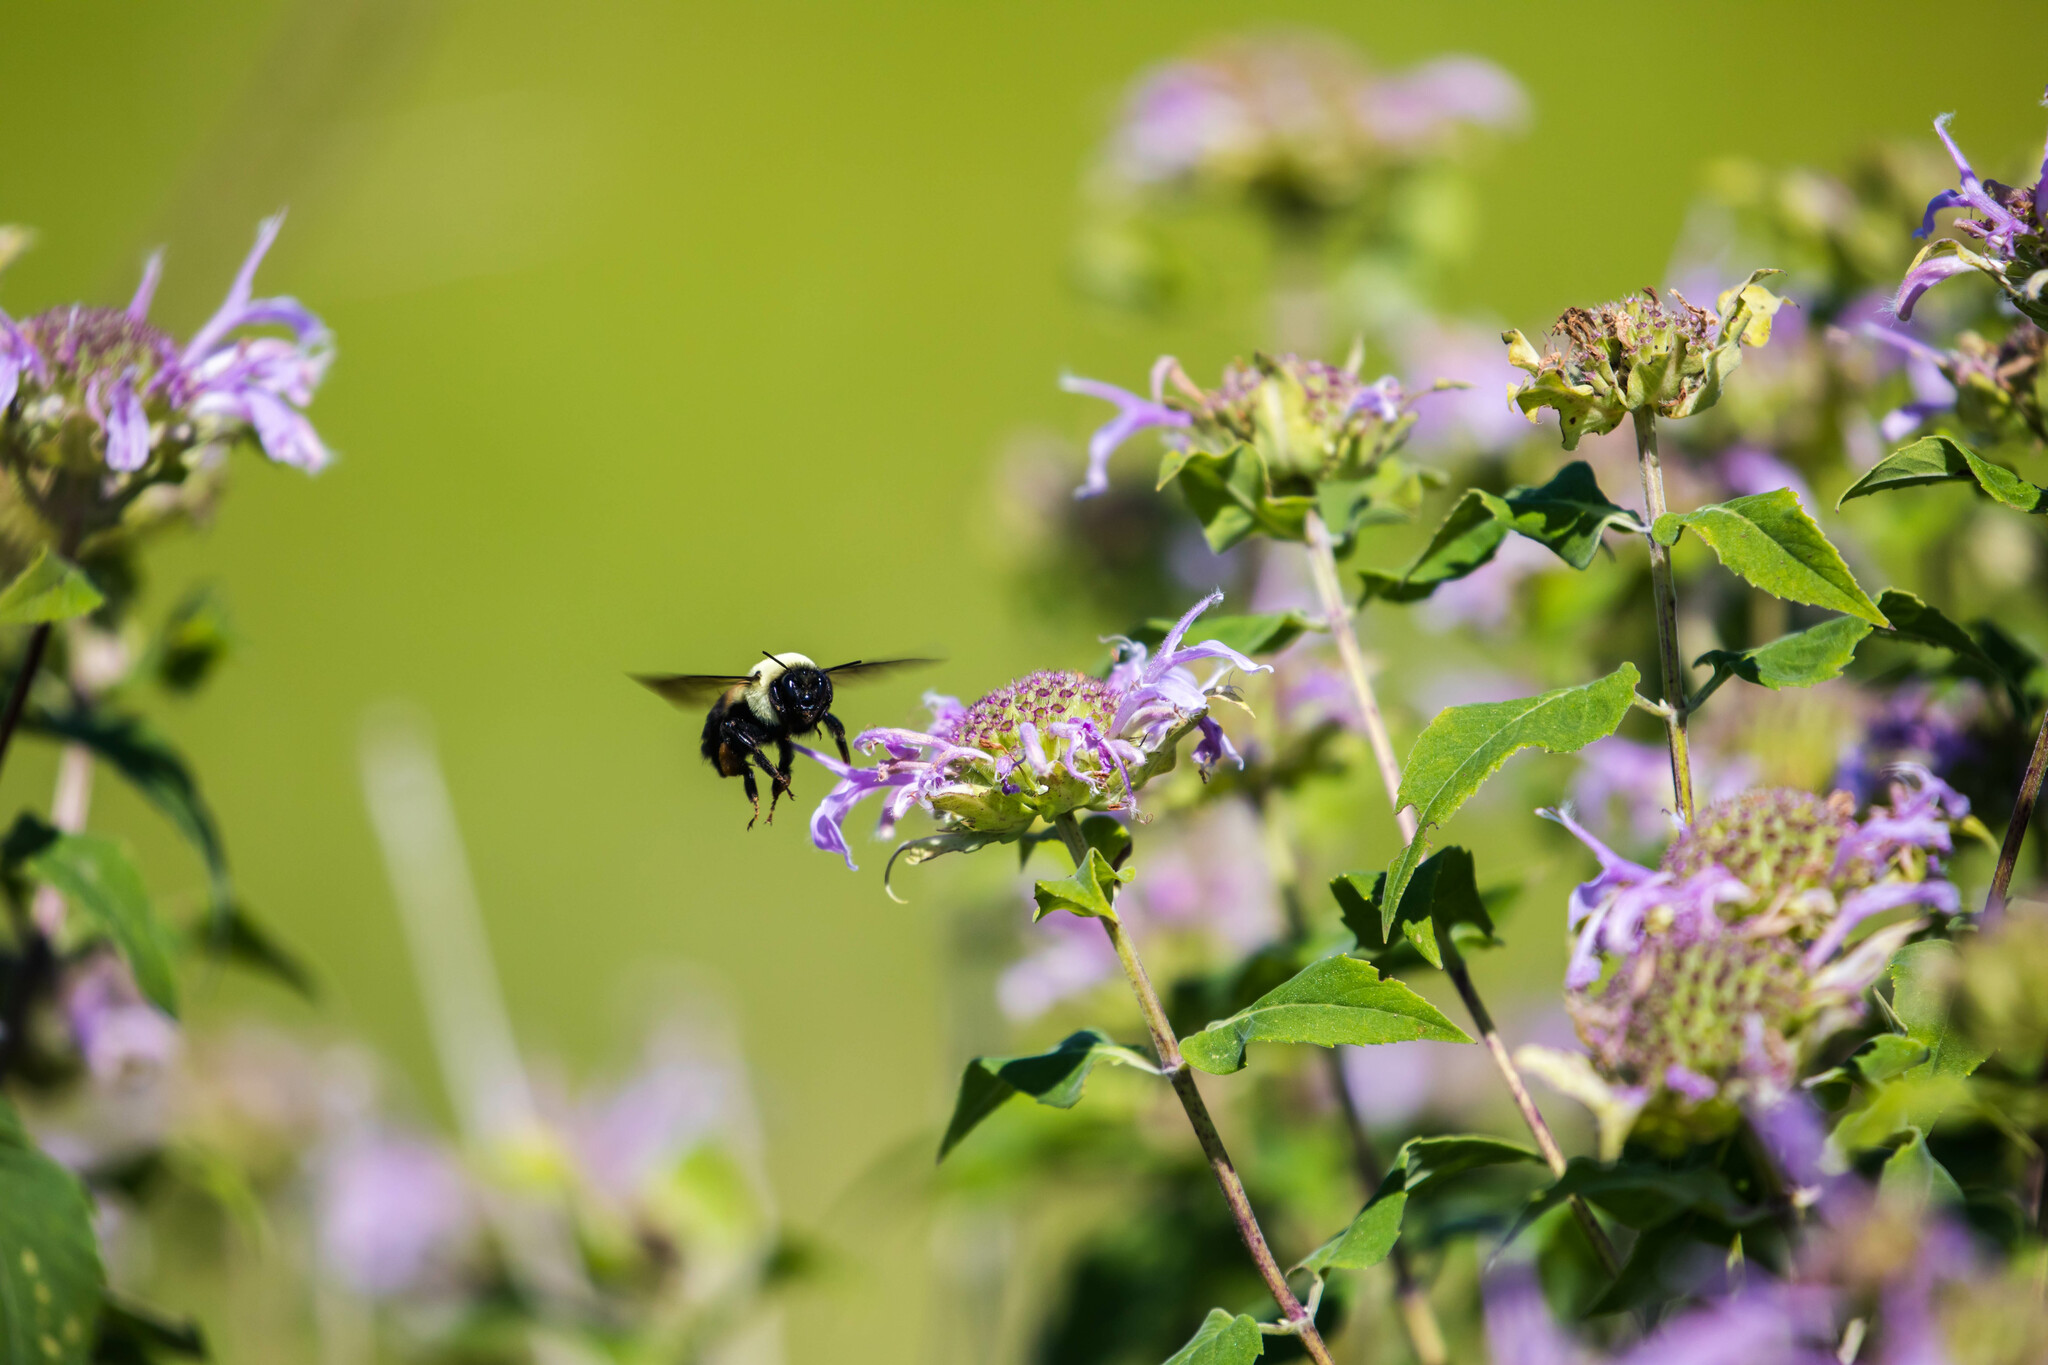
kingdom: Animalia
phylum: Arthropoda
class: Insecta
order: Hymenoptera
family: Apidae
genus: Bombus
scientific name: Bombus griseocollis
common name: Brown-belted bumble bee
